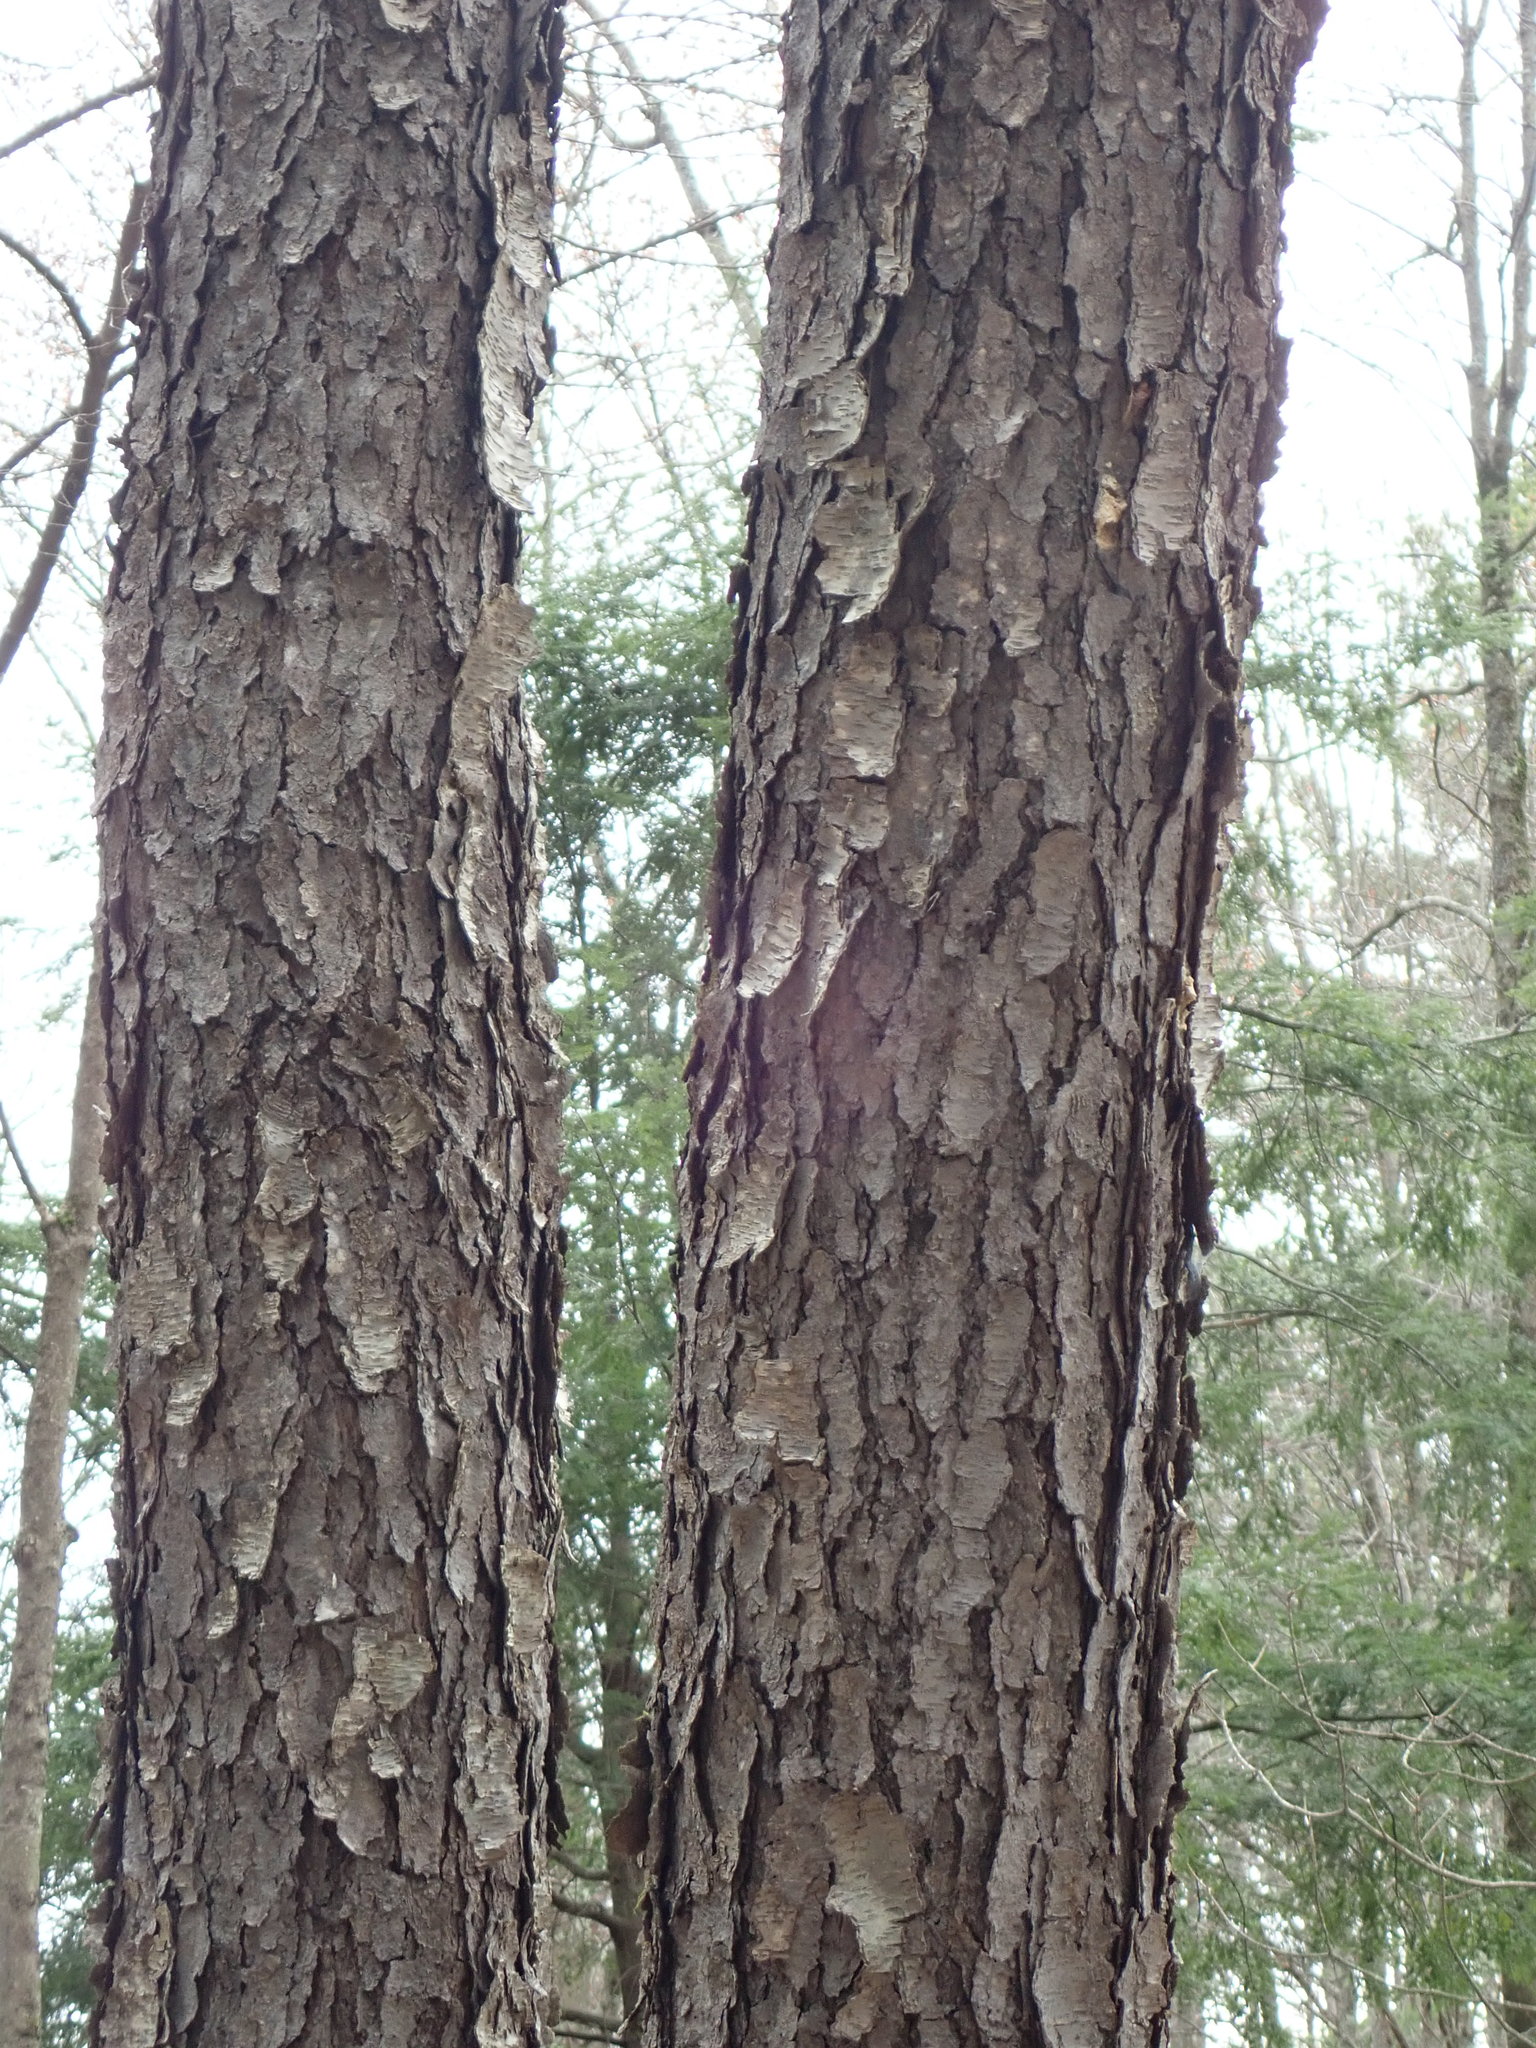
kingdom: Plantae
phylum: Tracheophyta
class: Magnoliopsida
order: Rosales
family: Rosaceae
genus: Prunus
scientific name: Prunus serotina
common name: Black cherry
